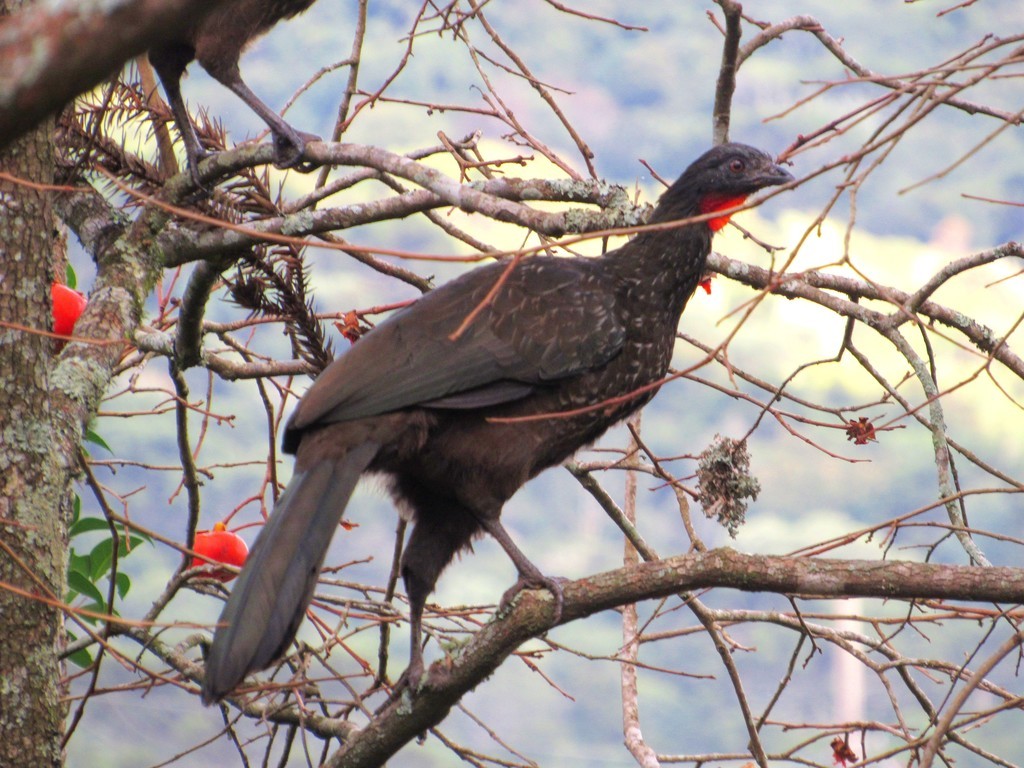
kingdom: Animalia
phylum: Chordata
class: Aves
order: Galliformes
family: Cracidae
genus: Penelope
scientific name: Penelope obscura
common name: Dusky-legged guan
